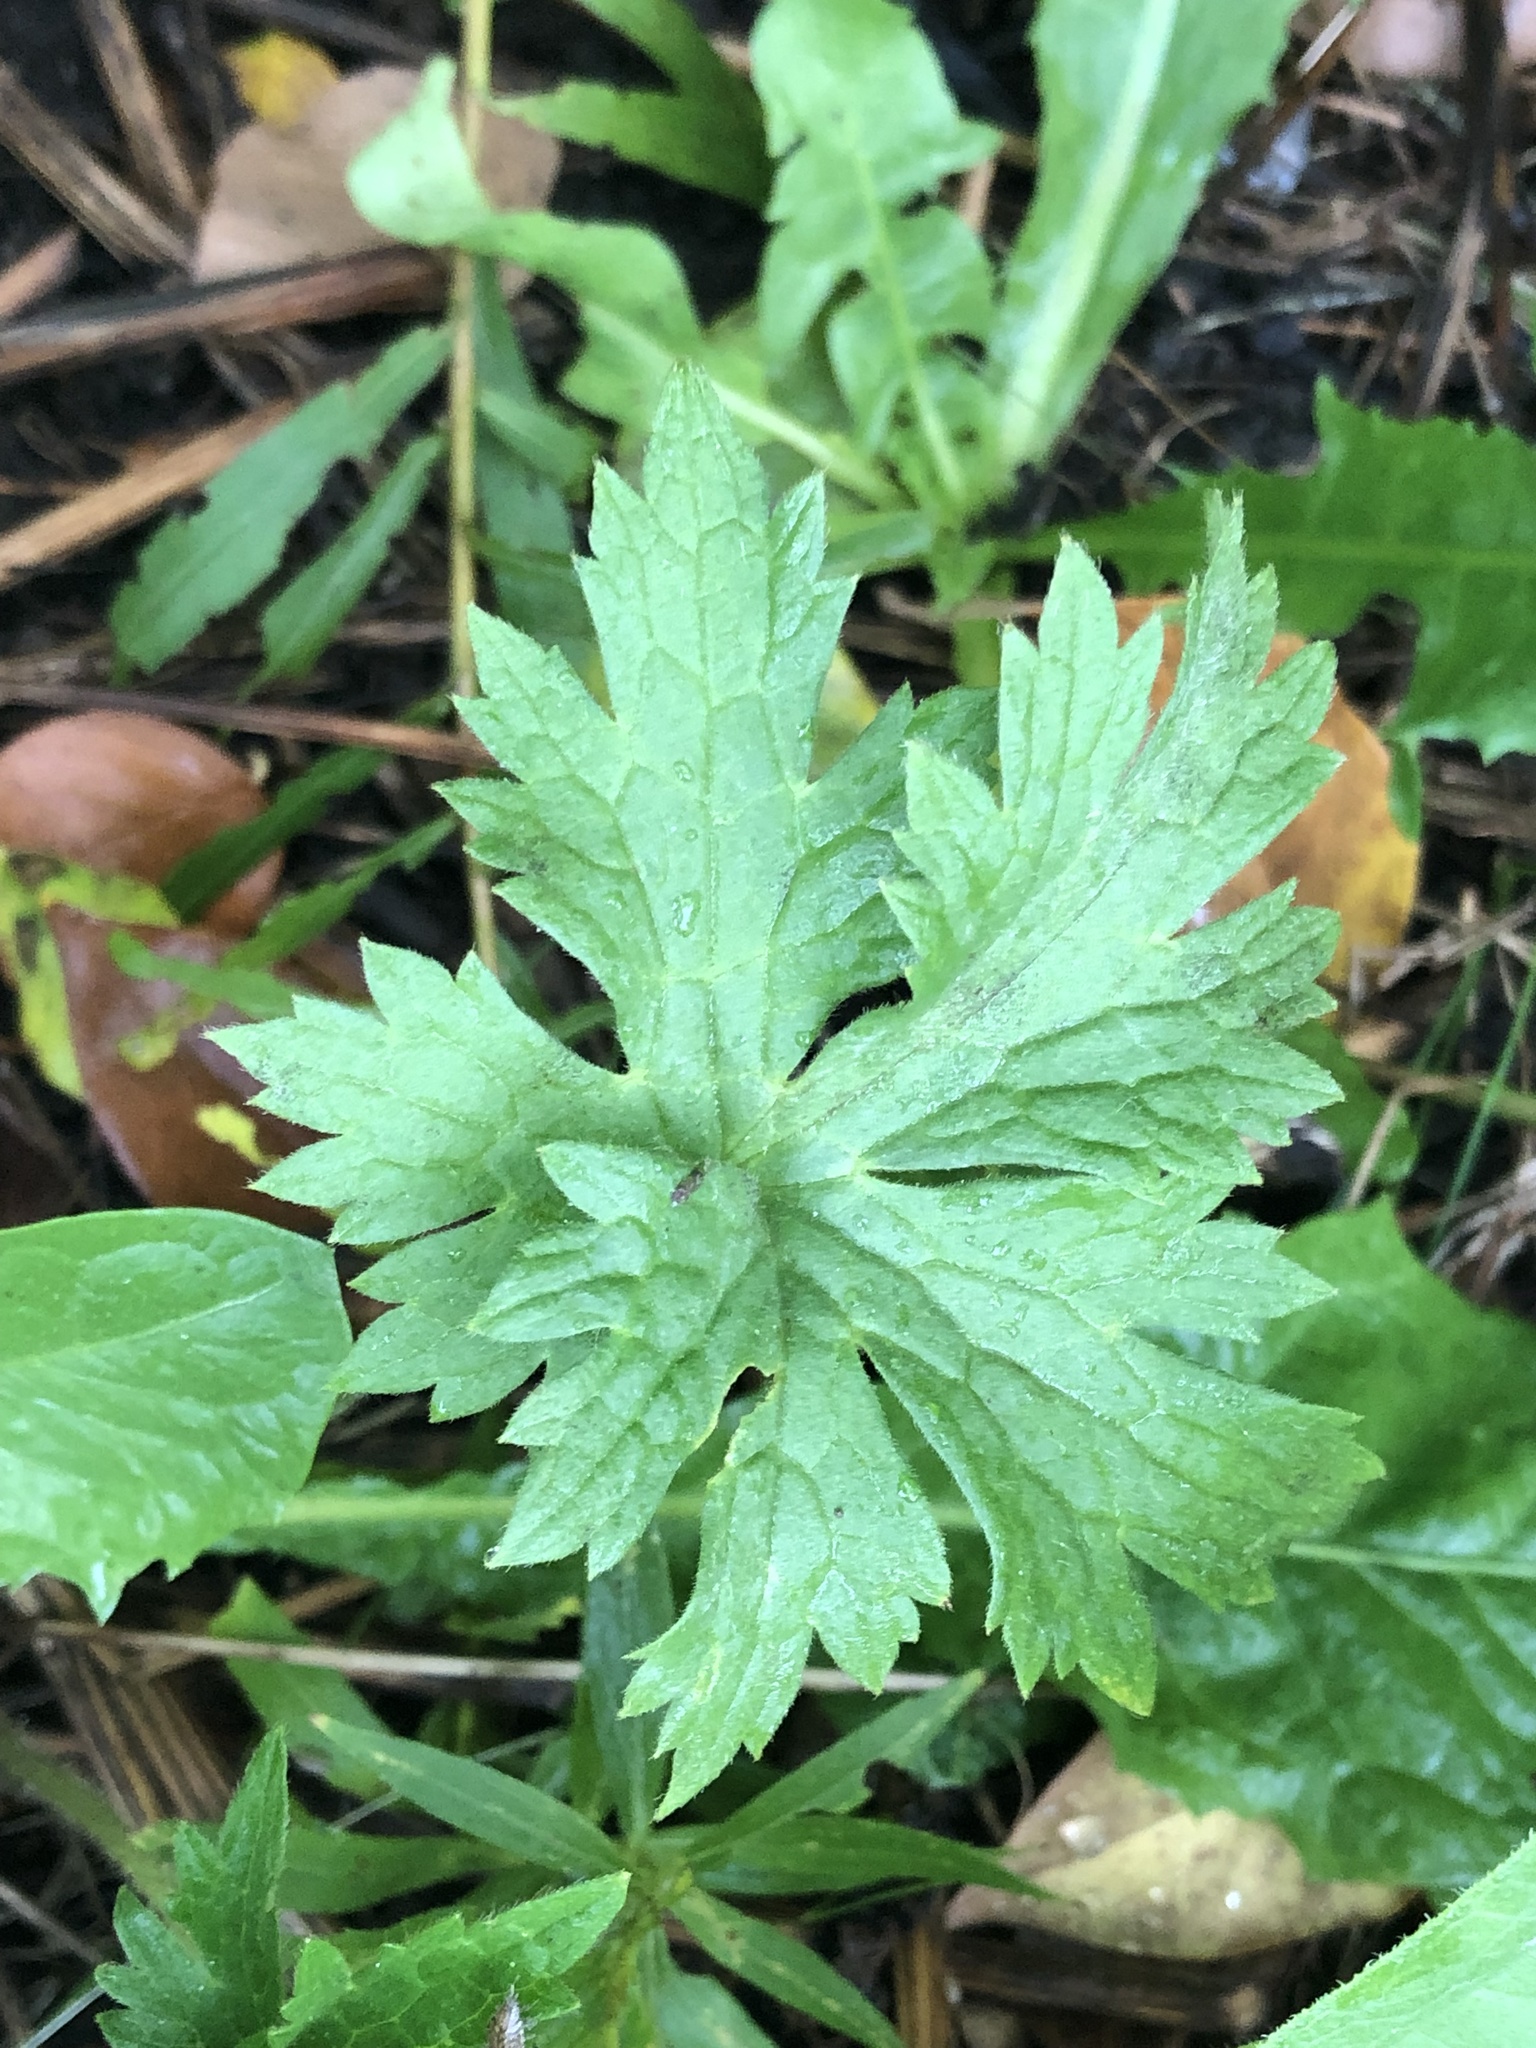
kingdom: Plantae
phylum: Tracheophyta
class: Magnoliopsida
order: Ranunculales
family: Ranunculaceae
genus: Ranunculus
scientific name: Ranunculus acris
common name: Meadow buttercup
